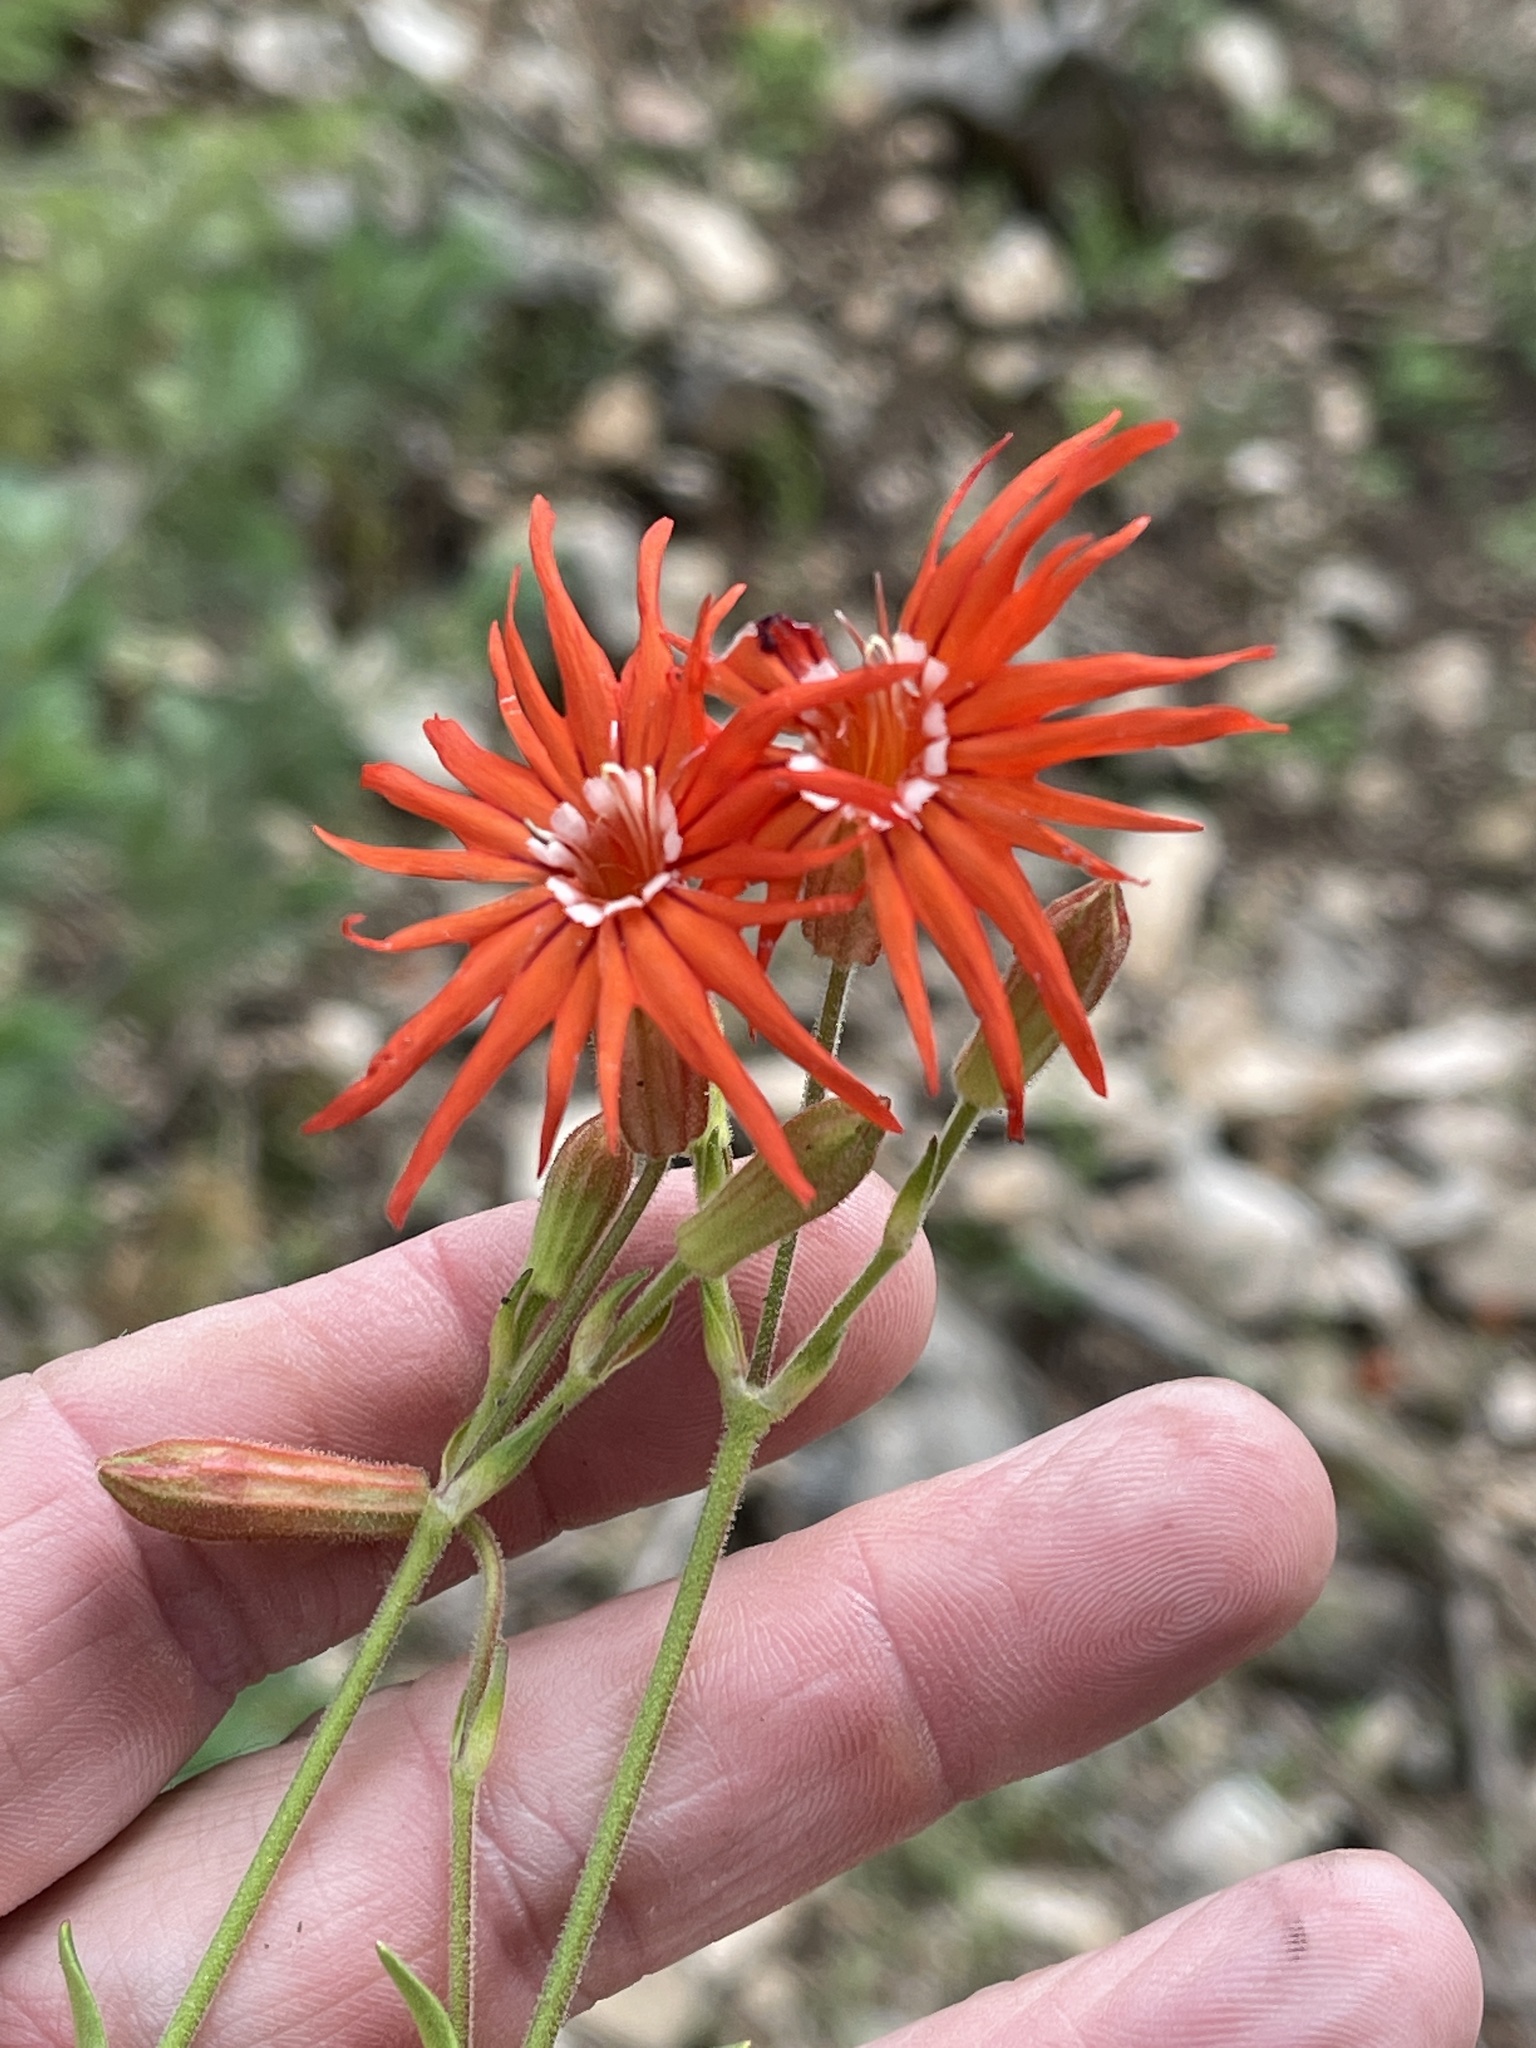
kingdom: Plantae
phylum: Tracheophyta
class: Magnoliopsida
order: Caryophyllales
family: Caryophyllaceae
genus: Silene
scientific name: Silene laciniata
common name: Indian-pink
